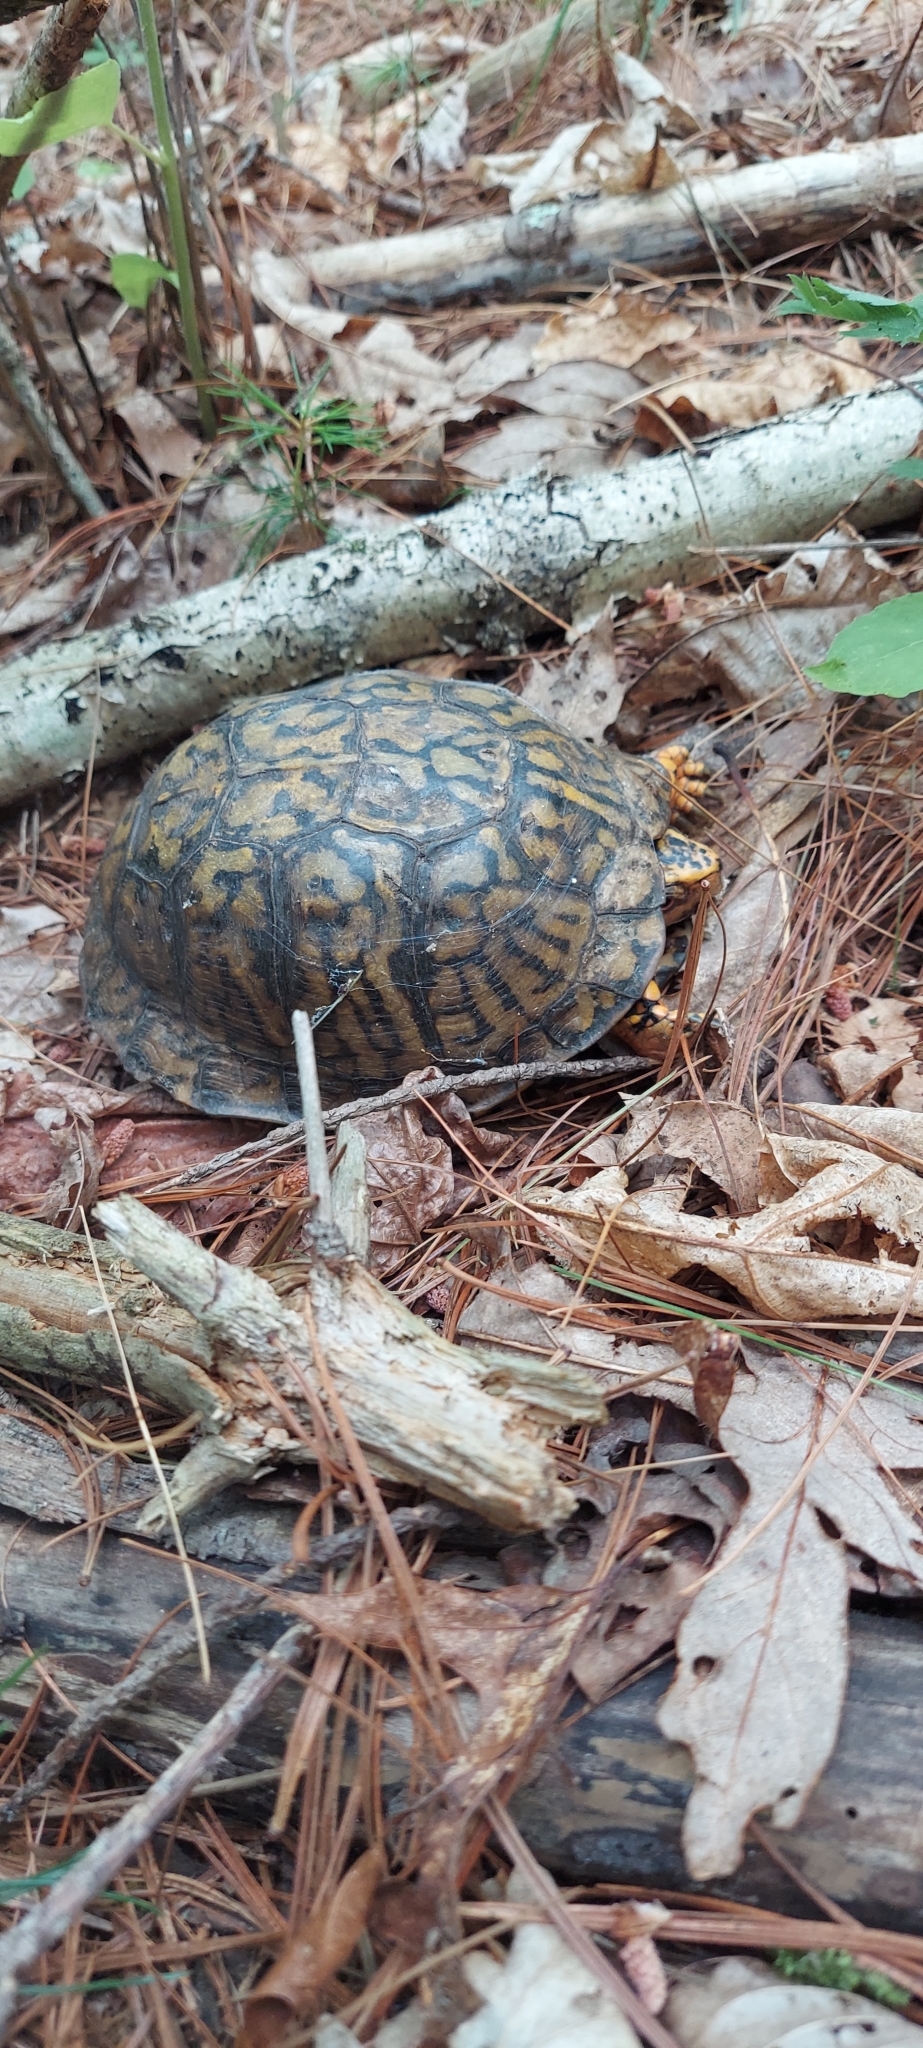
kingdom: Animalia
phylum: Chordata
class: Testudines
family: Emydidae
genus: Terrapene
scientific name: Terrapene carolina
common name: Common box turtle
